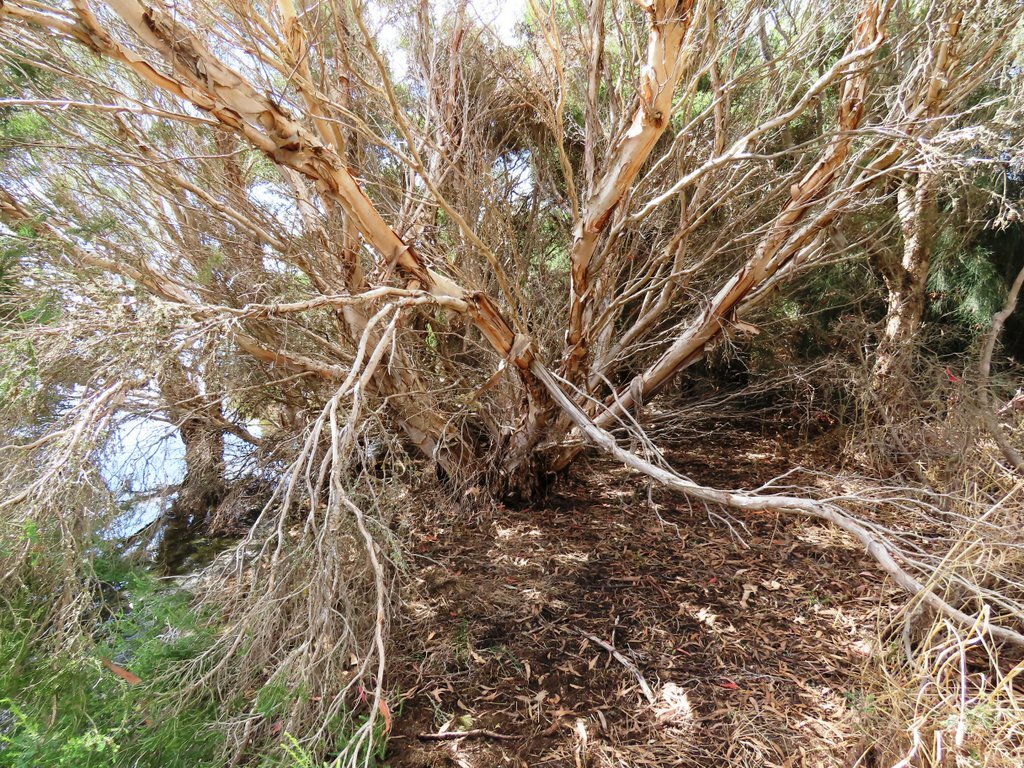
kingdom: Plantae
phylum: Tracheophyta
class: Magnoliopsida
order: Myrtales
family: Myrtaceae
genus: Melaleuca
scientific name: Melaleuca ericifolia
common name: Paperbark teatree
